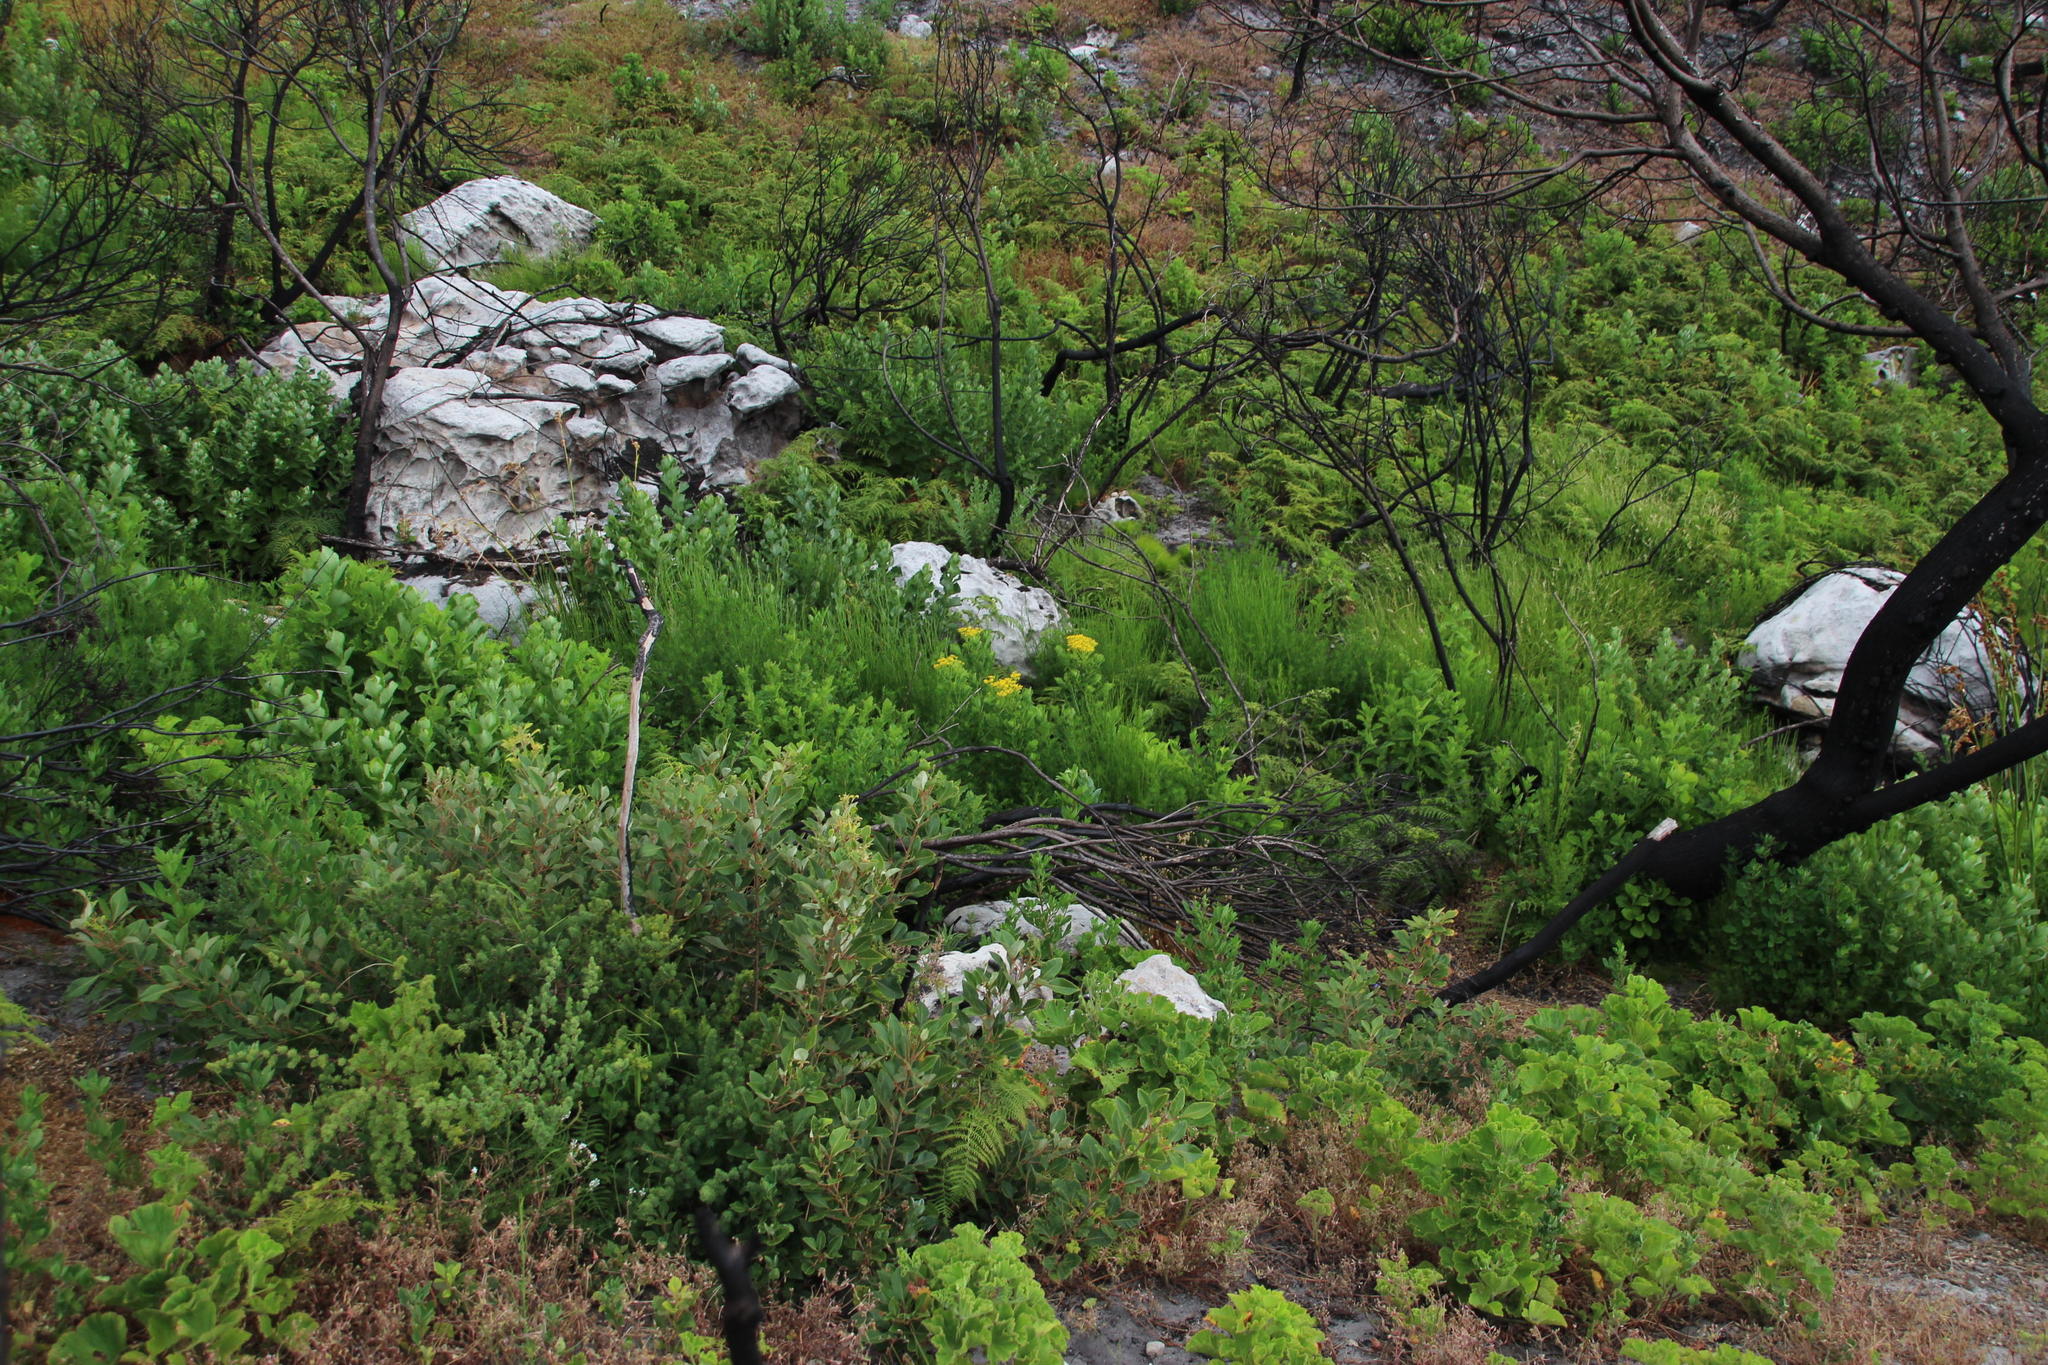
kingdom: Plantae
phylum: Tracheophyta
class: Magnoliopsida
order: Asterales
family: Asteraceae
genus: Senecio
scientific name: Senecio rigidus
